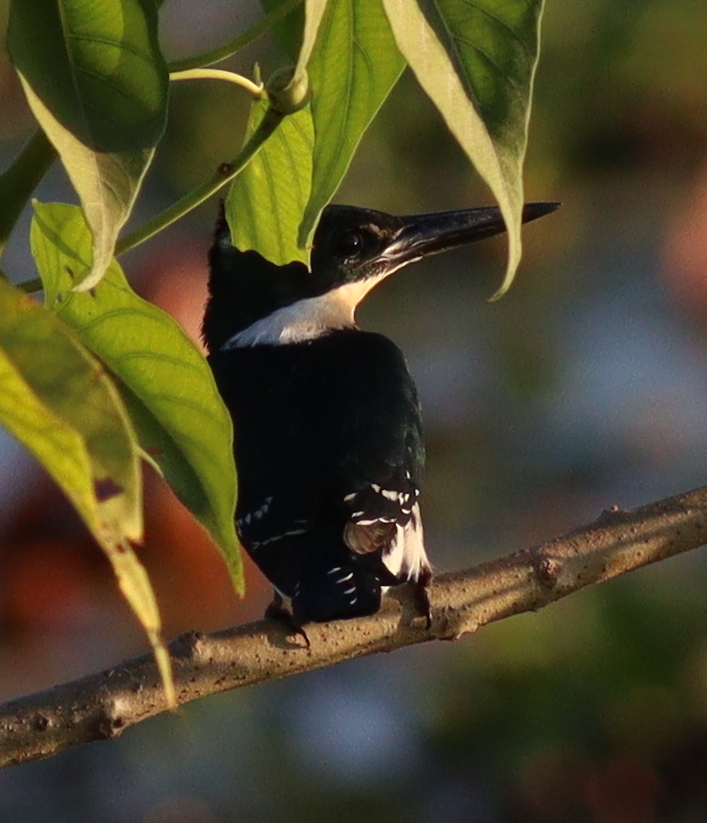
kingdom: Animalia
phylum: Chordata
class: Aves
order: Coraciiformes
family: Alcedinidae
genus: Chloroceryle
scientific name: Chloroceryle americana
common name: Green kingfisher
